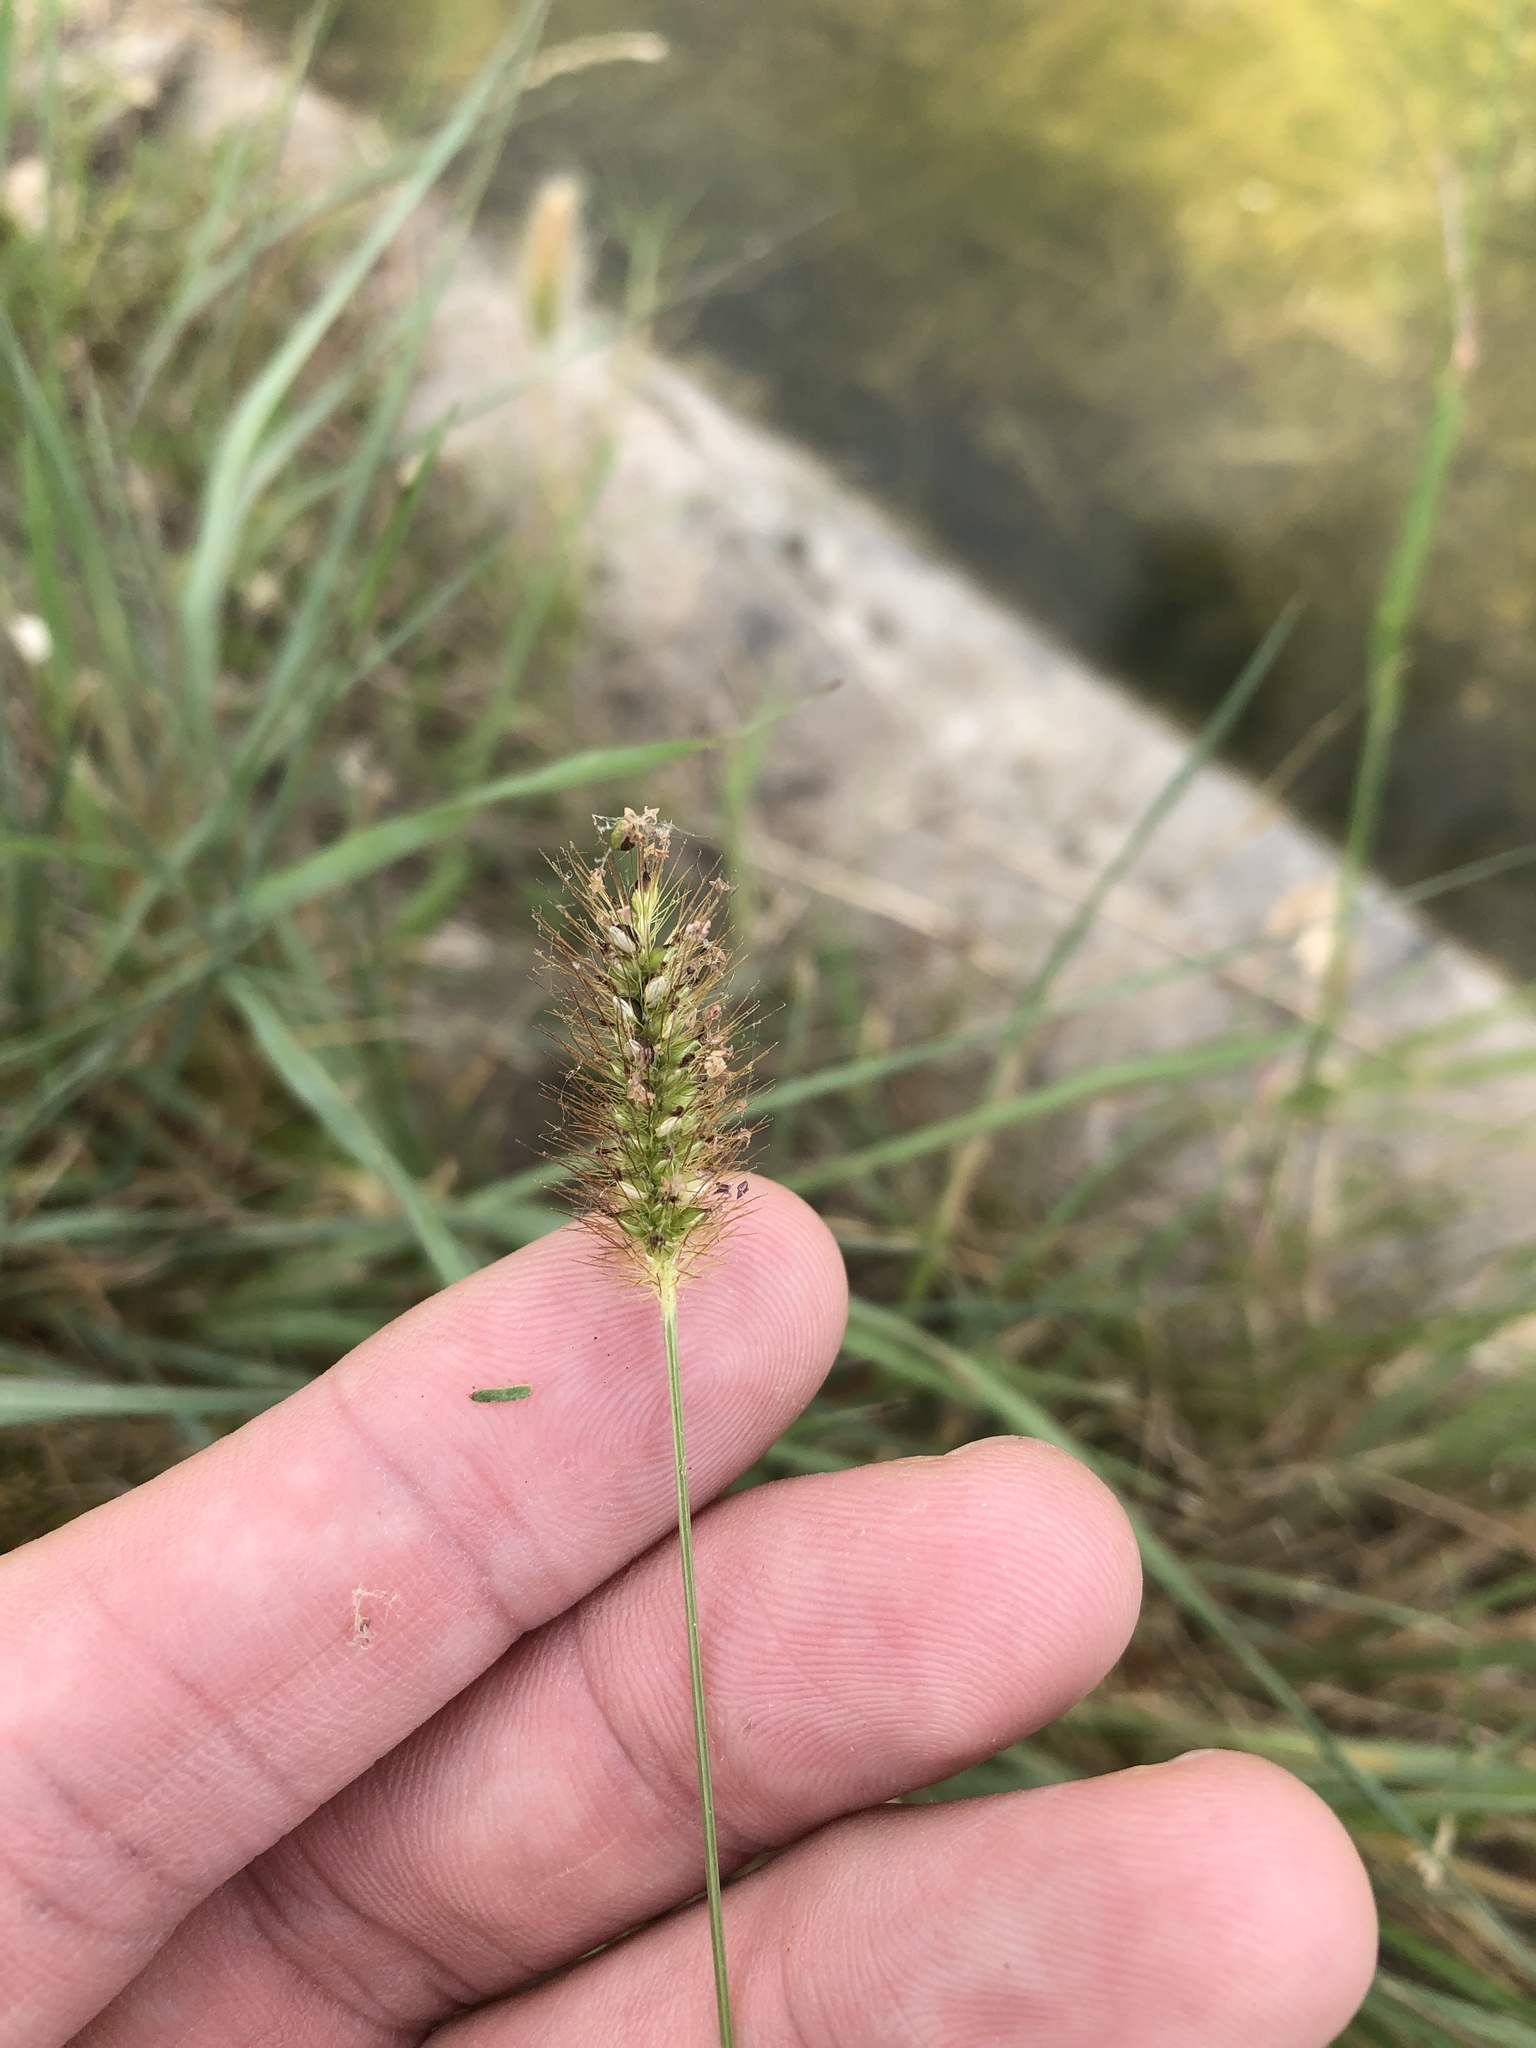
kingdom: Plantae
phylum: Tracheophyta
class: Liliopsida
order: Poales
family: Poaceae
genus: Setaria
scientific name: Setaria parviflora
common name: Knotroot bristle-grass
